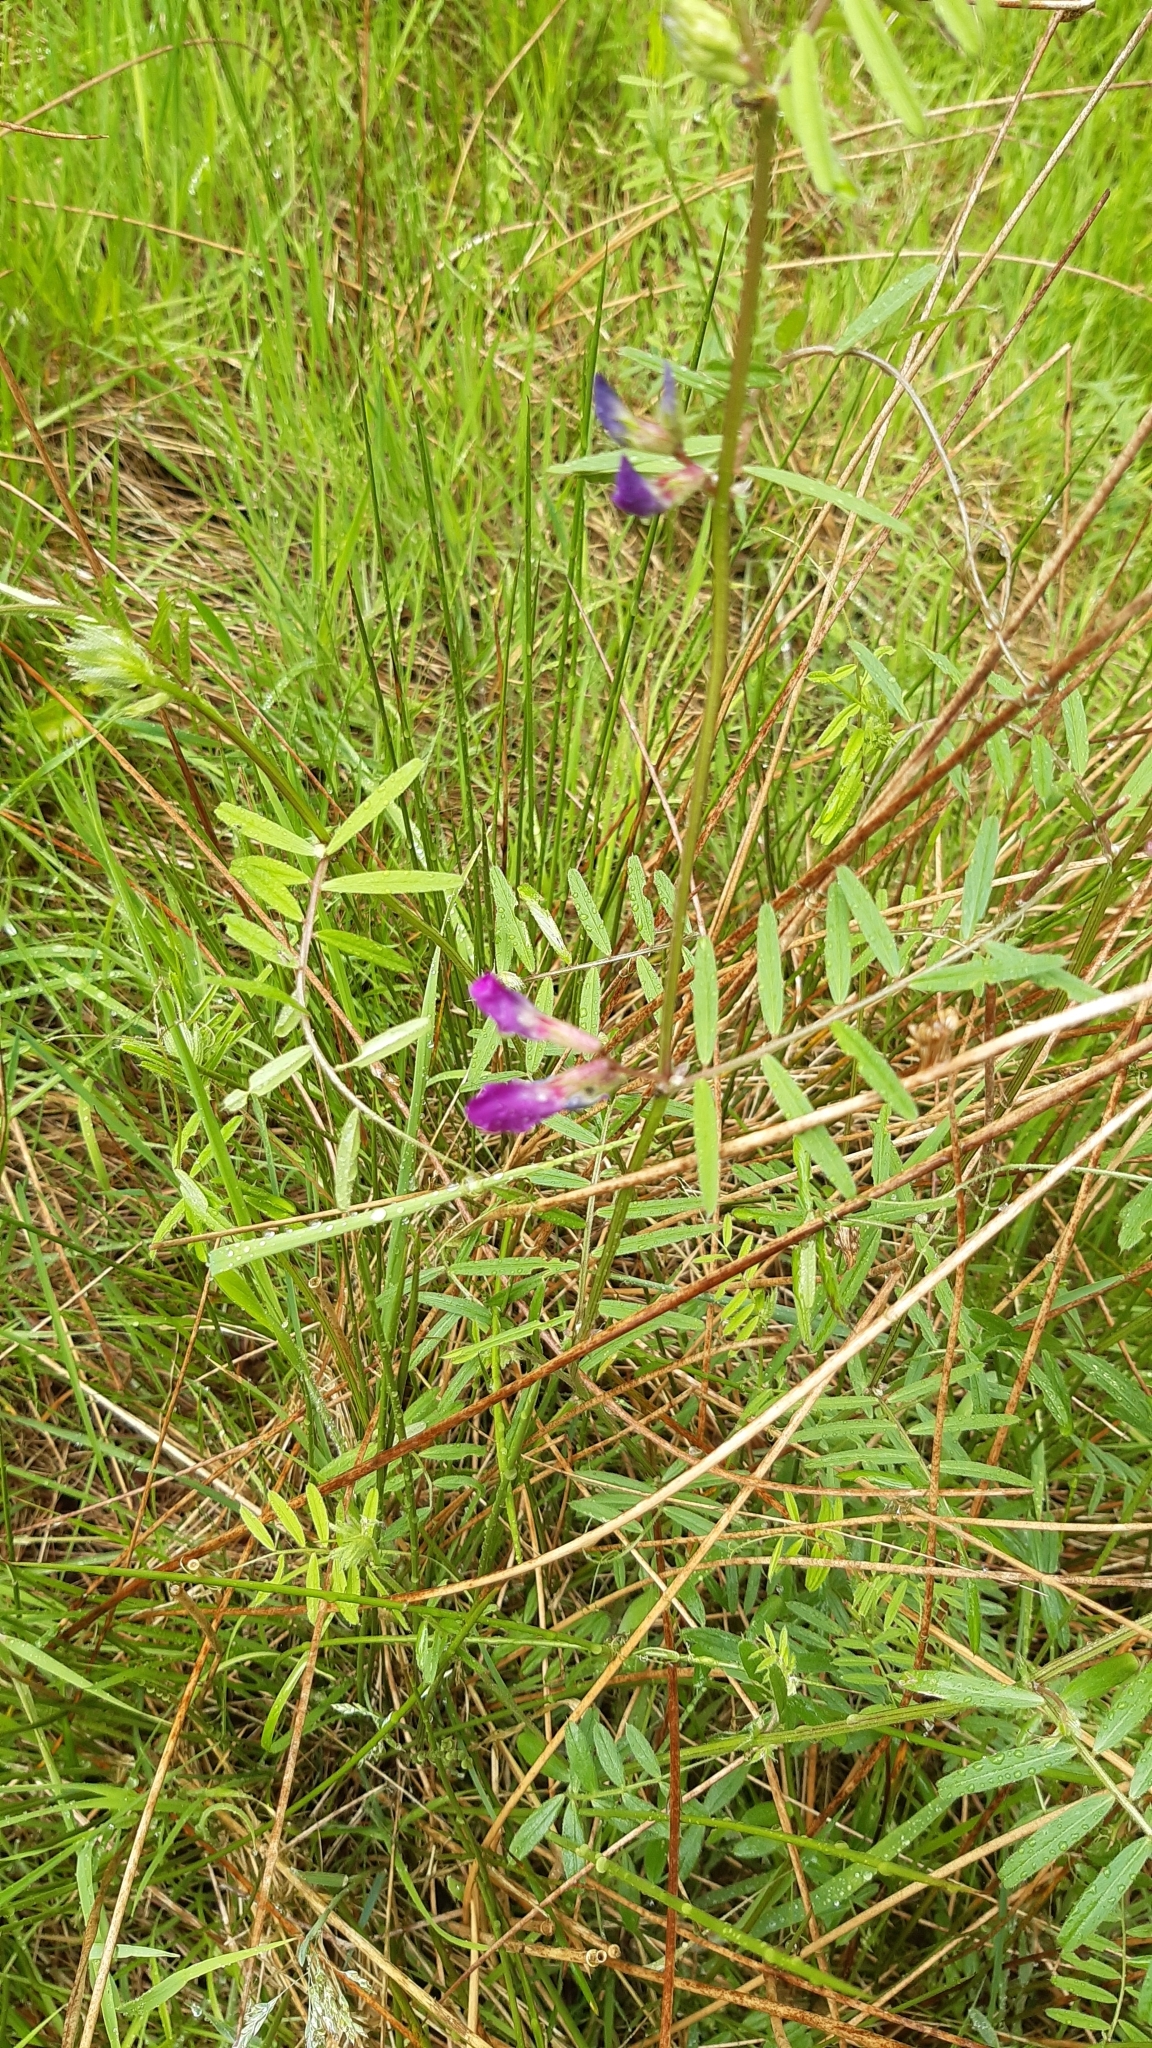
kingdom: Plantae
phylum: Tracheophyta
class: Magnoliopsida
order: Fabales
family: Fabaceae
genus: Vicia
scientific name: Vicia sativa
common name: Garden vetch
